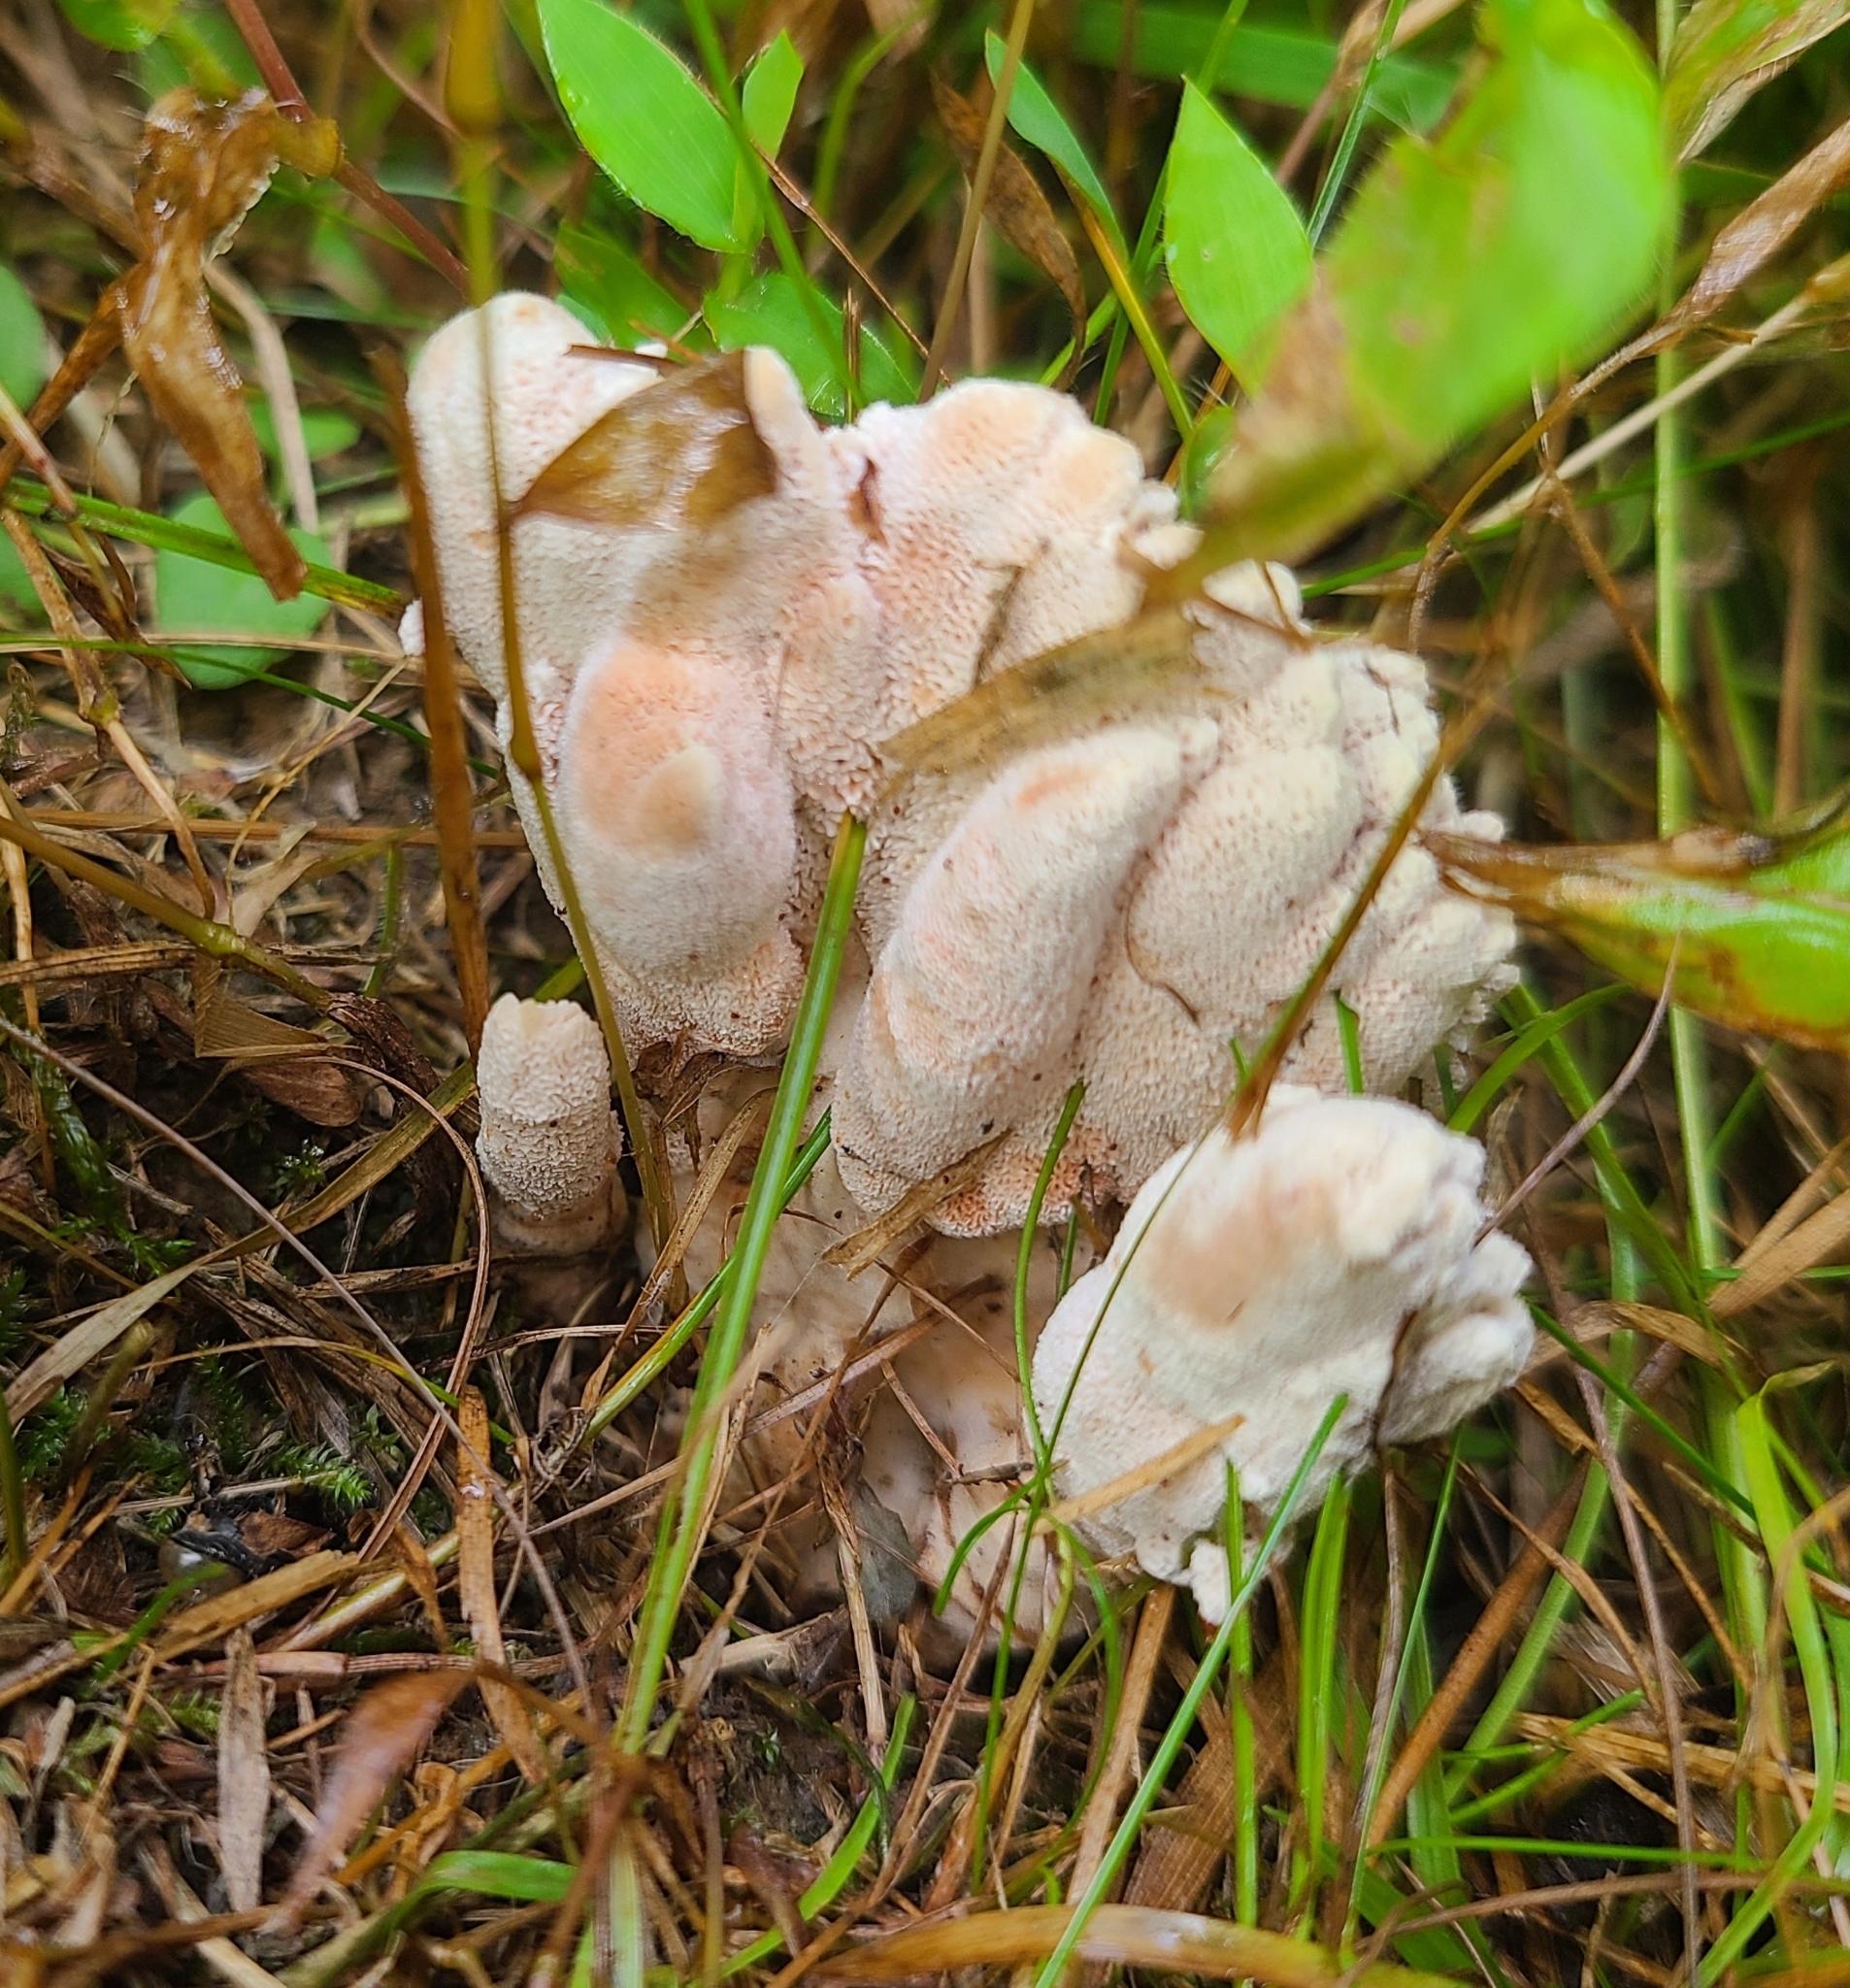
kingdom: Fungi
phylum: Basidiomycota
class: Agaricomycetes
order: Polyporales
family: Podoscyphaceae
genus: Abortiporus
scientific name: Abortiporus biennis
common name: Blushing rosette
